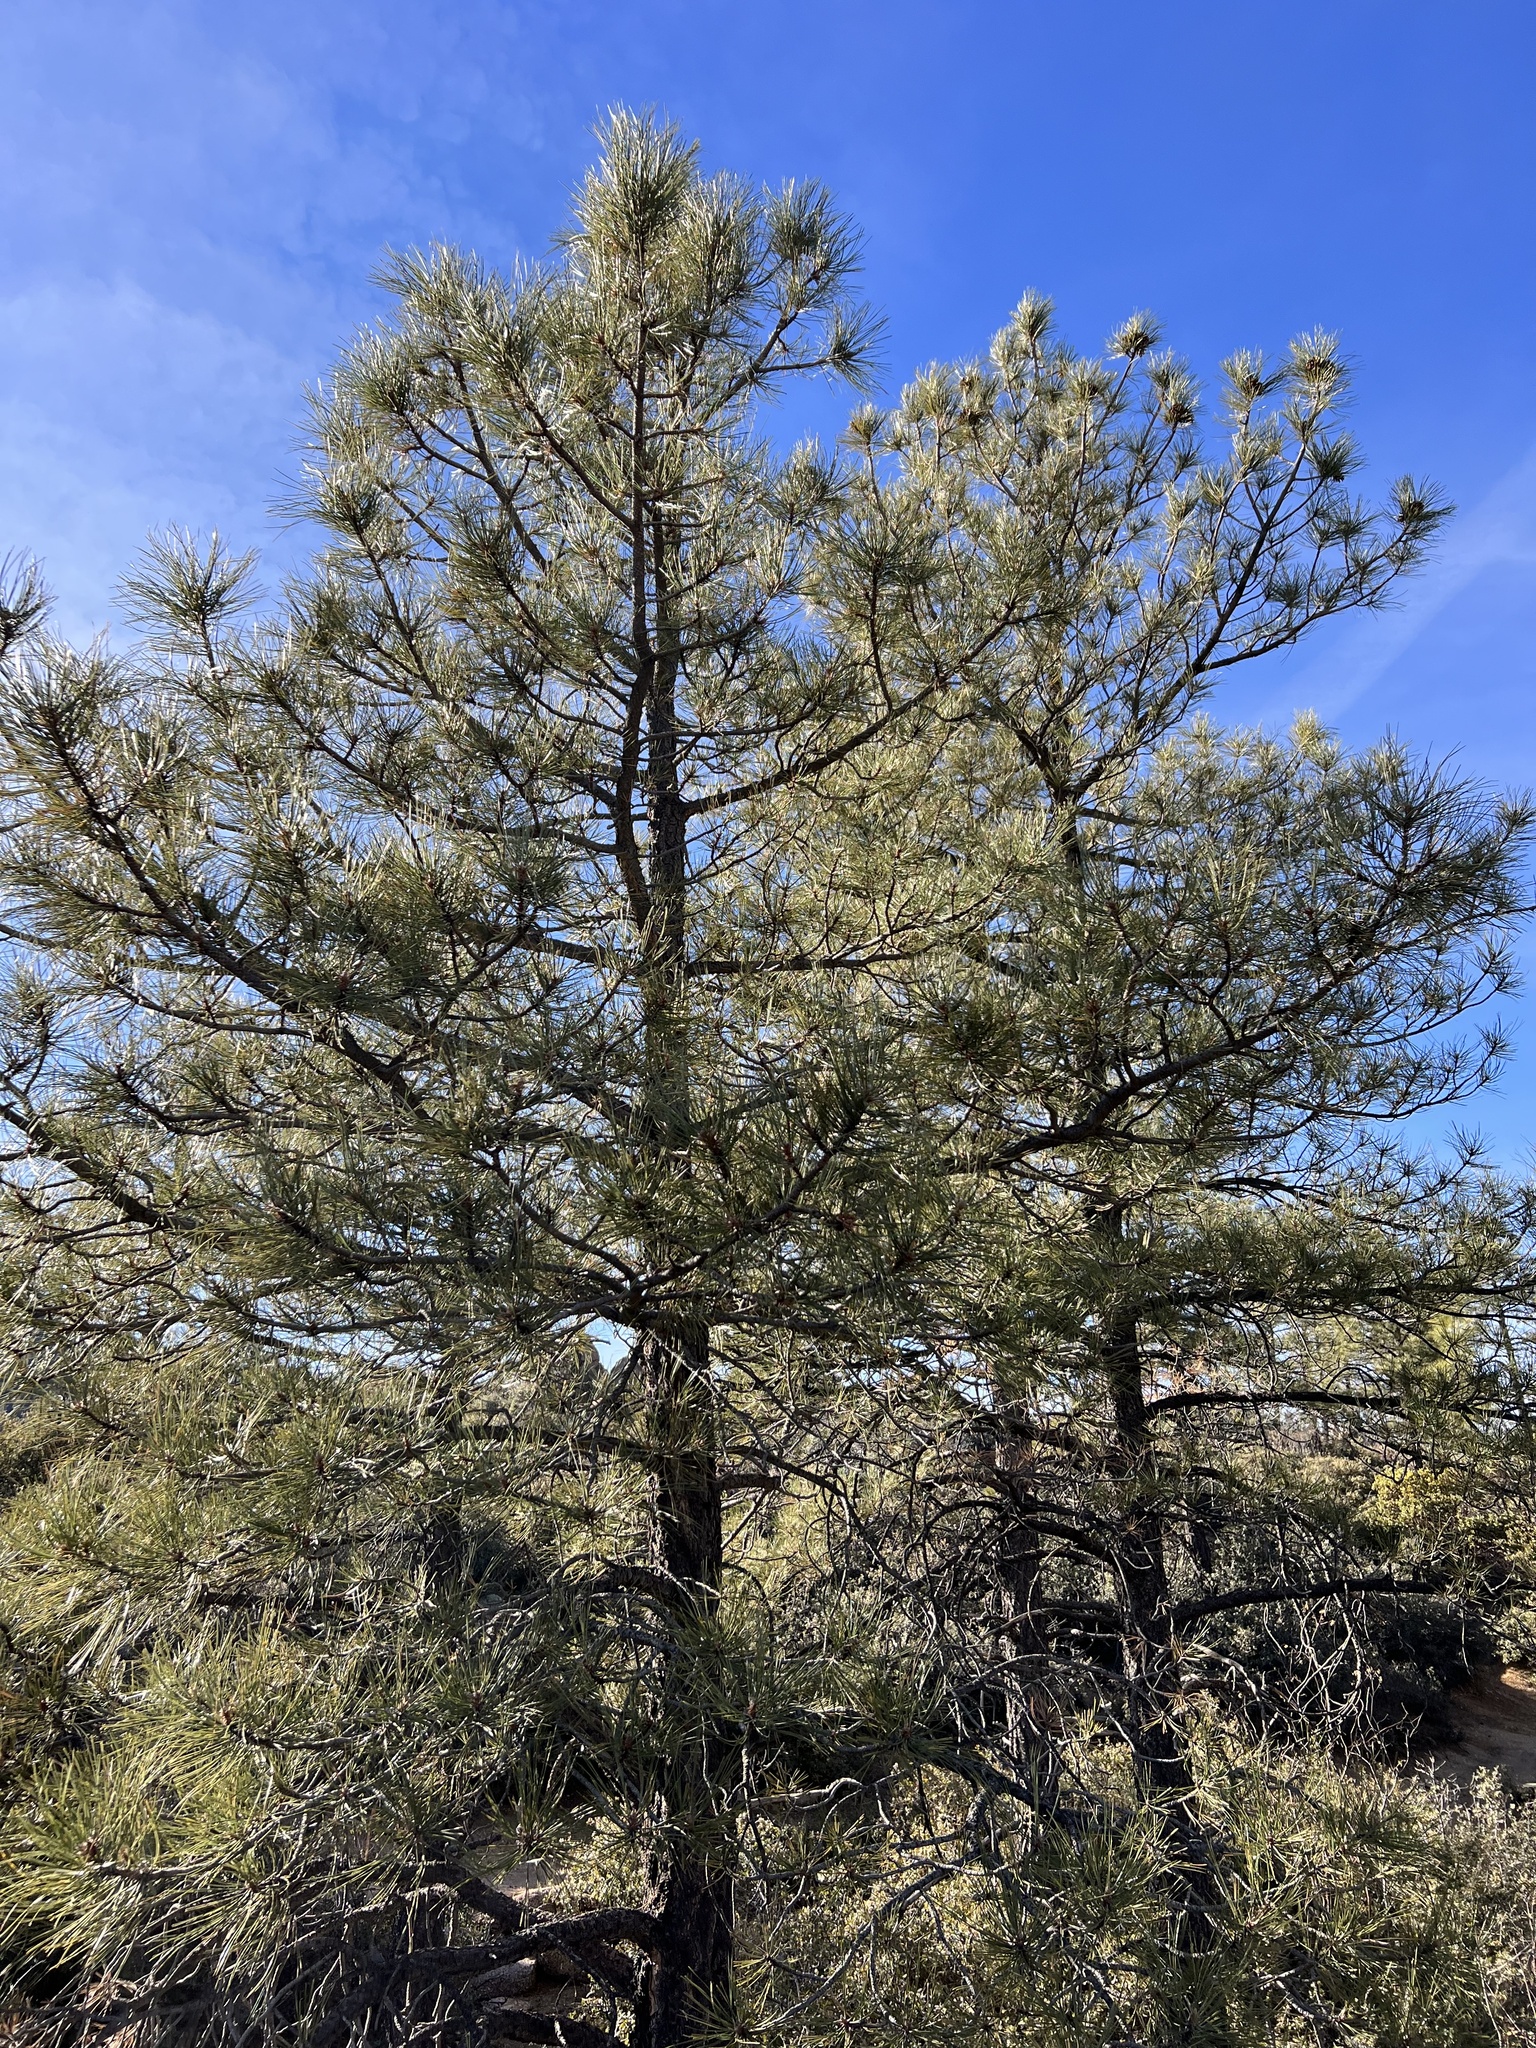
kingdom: Plantae
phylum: Tracheophyta
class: Pinopsida
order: Pinales
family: Pinaceae
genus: Pinus
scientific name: Pinus ponderosa
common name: Western yellow-pine
